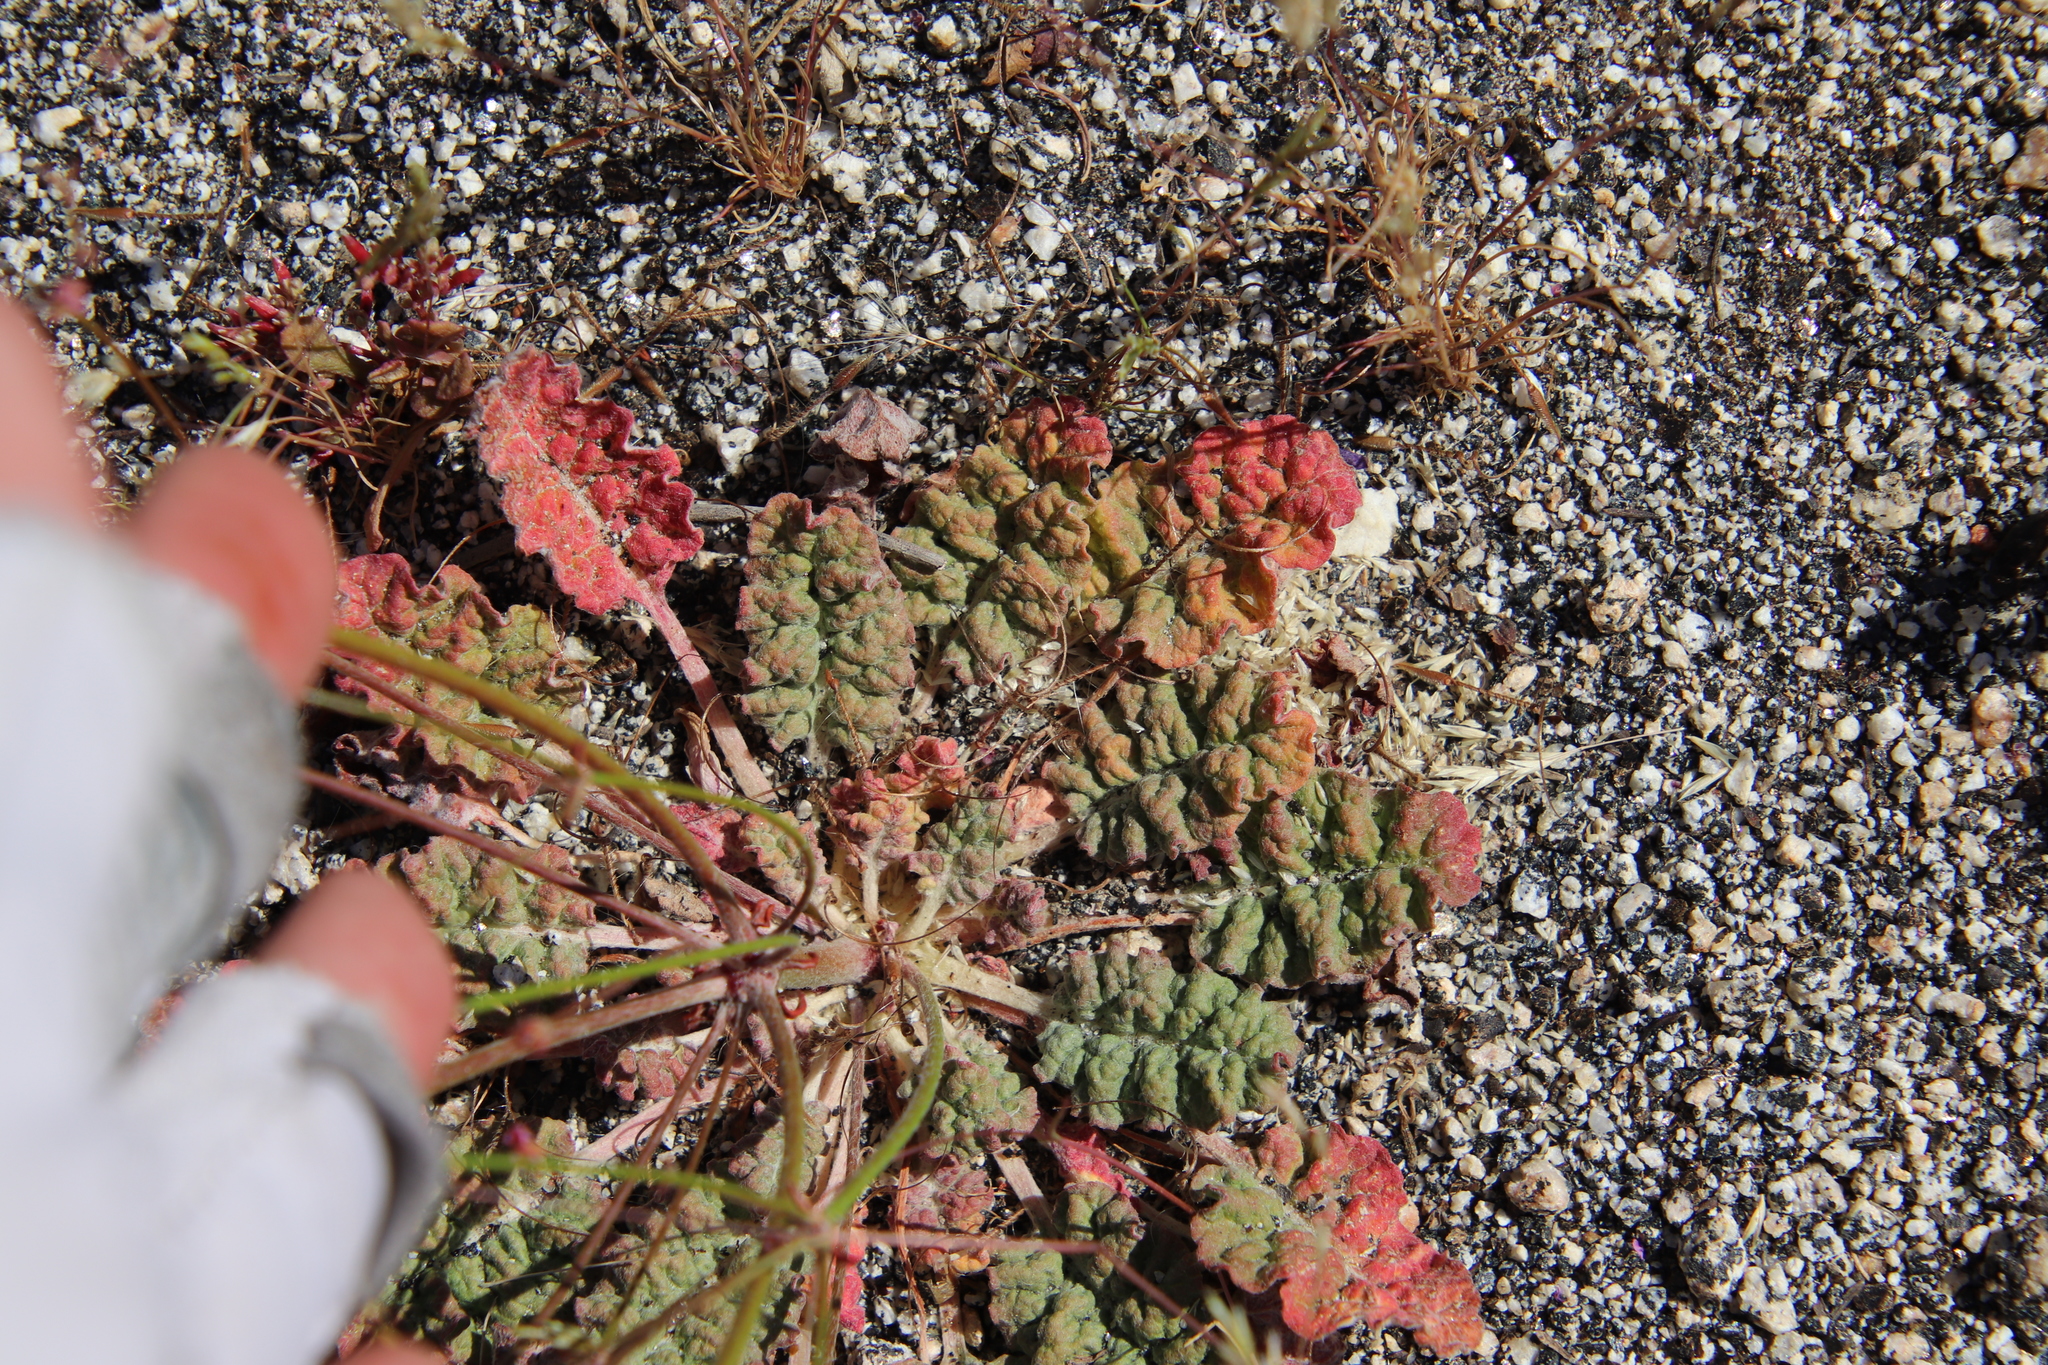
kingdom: Plantae
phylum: Tracheophyta
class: Magnoliopsida
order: Caryophyllales
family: Polygonaceae
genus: Eriogonum
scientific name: Eriogonum thurberi
